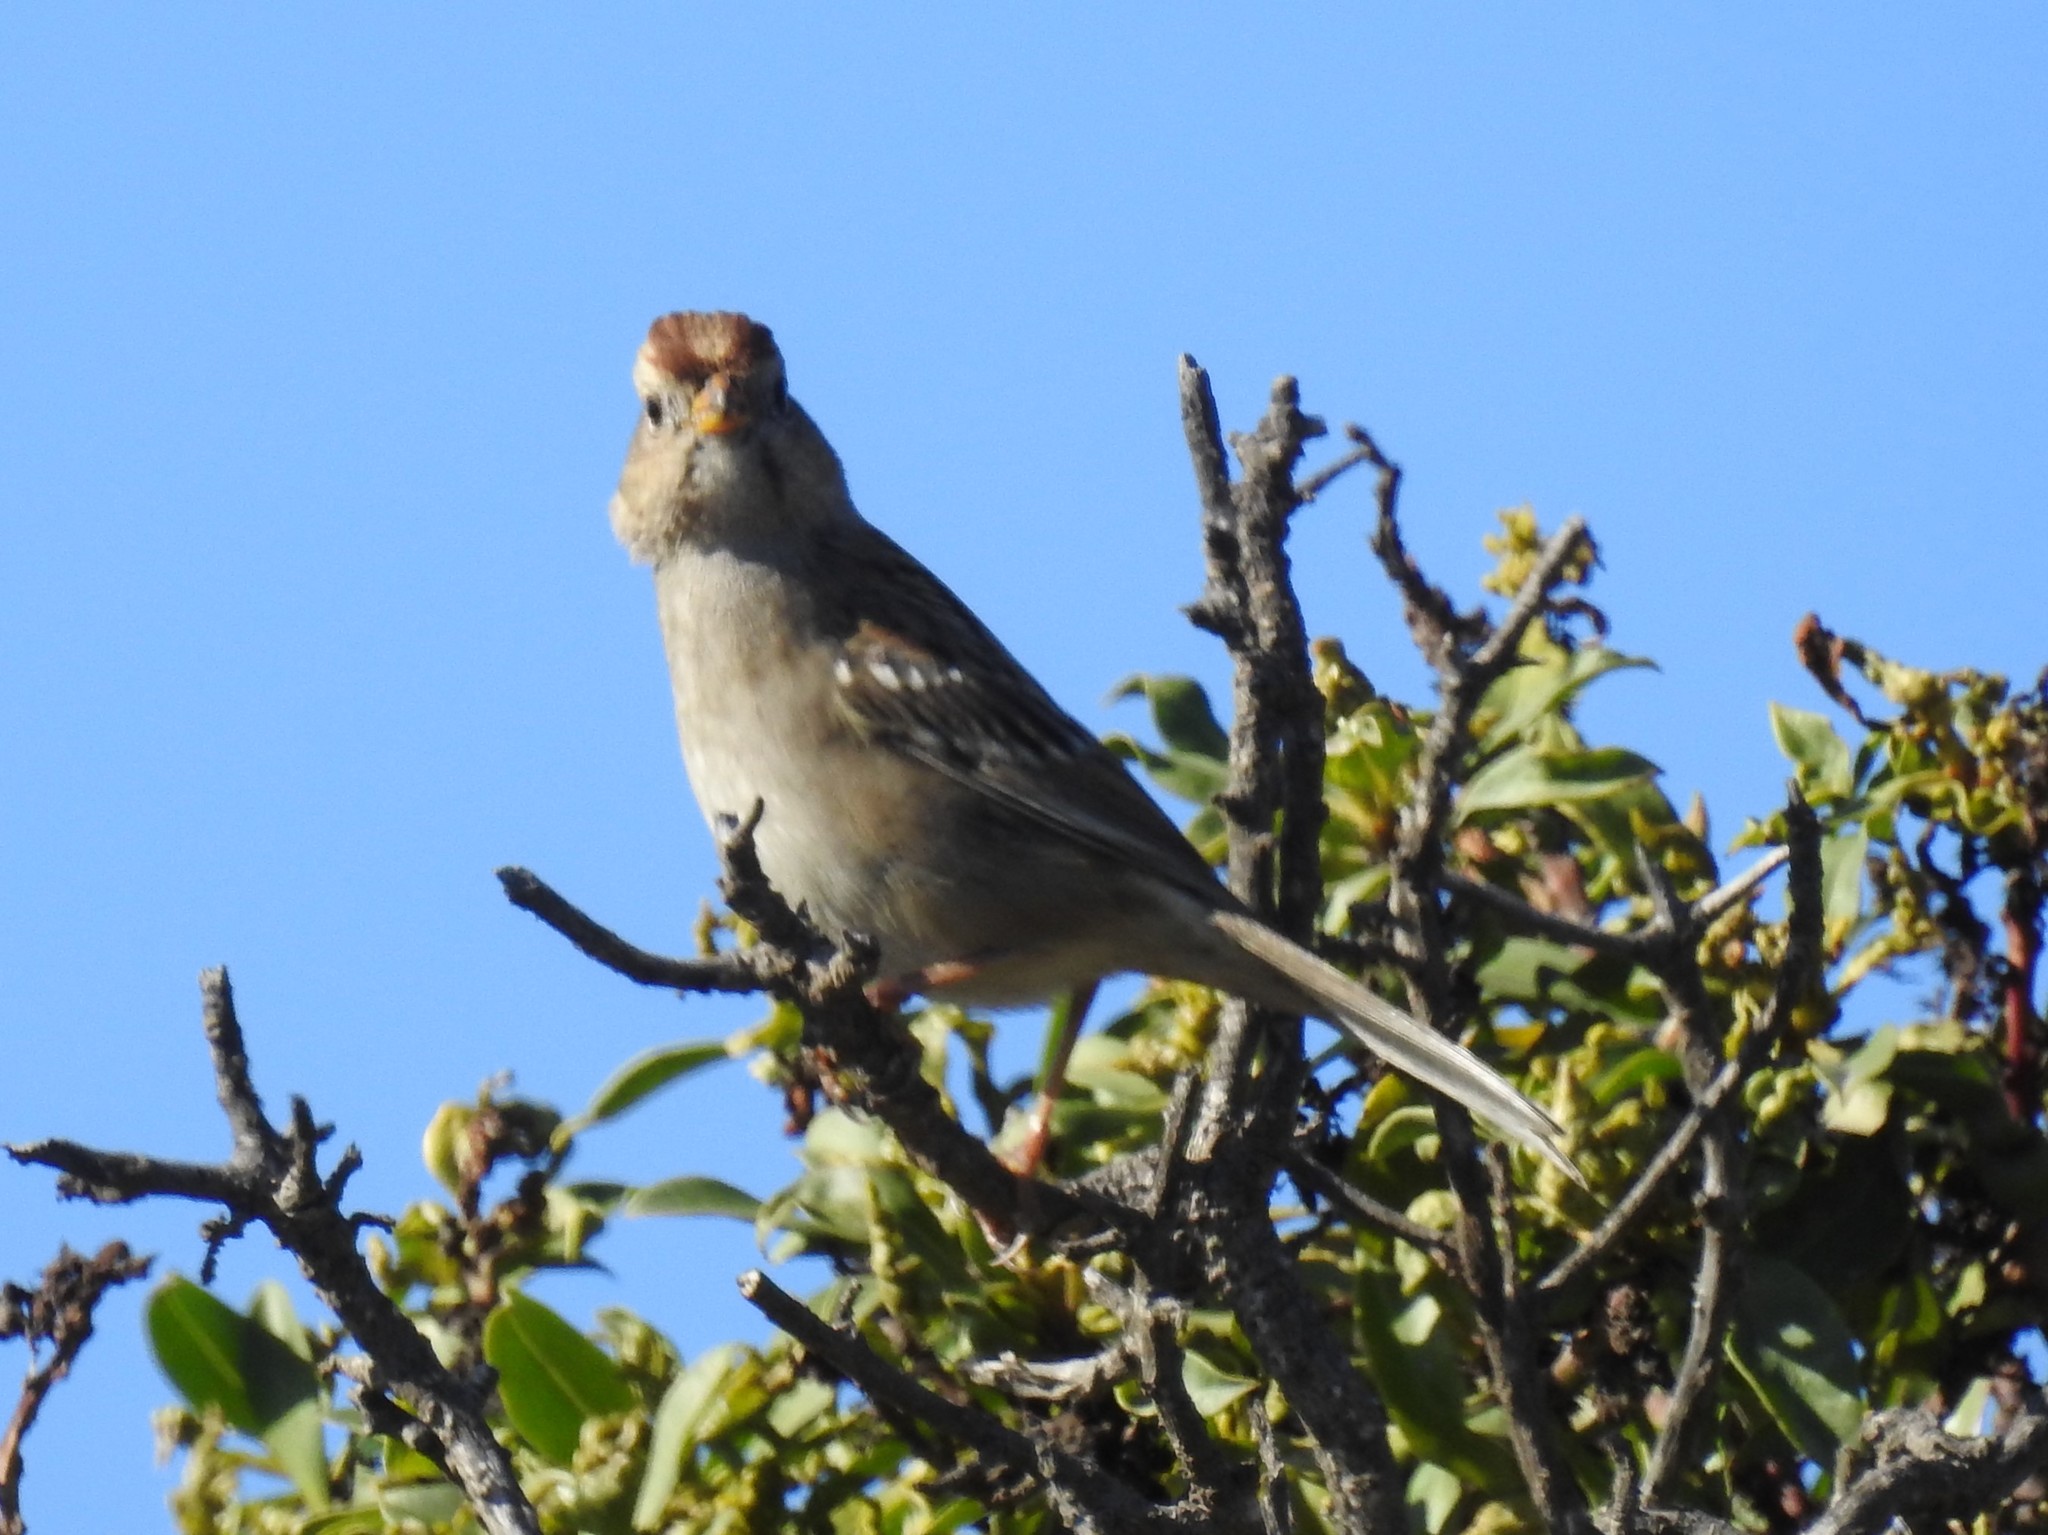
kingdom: Animalia
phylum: Chordata
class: Aves
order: Passeriformes
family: Passerellidae
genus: Zonotrichia
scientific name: Zonotrichia leucophrys
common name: White-crowned sparrow
